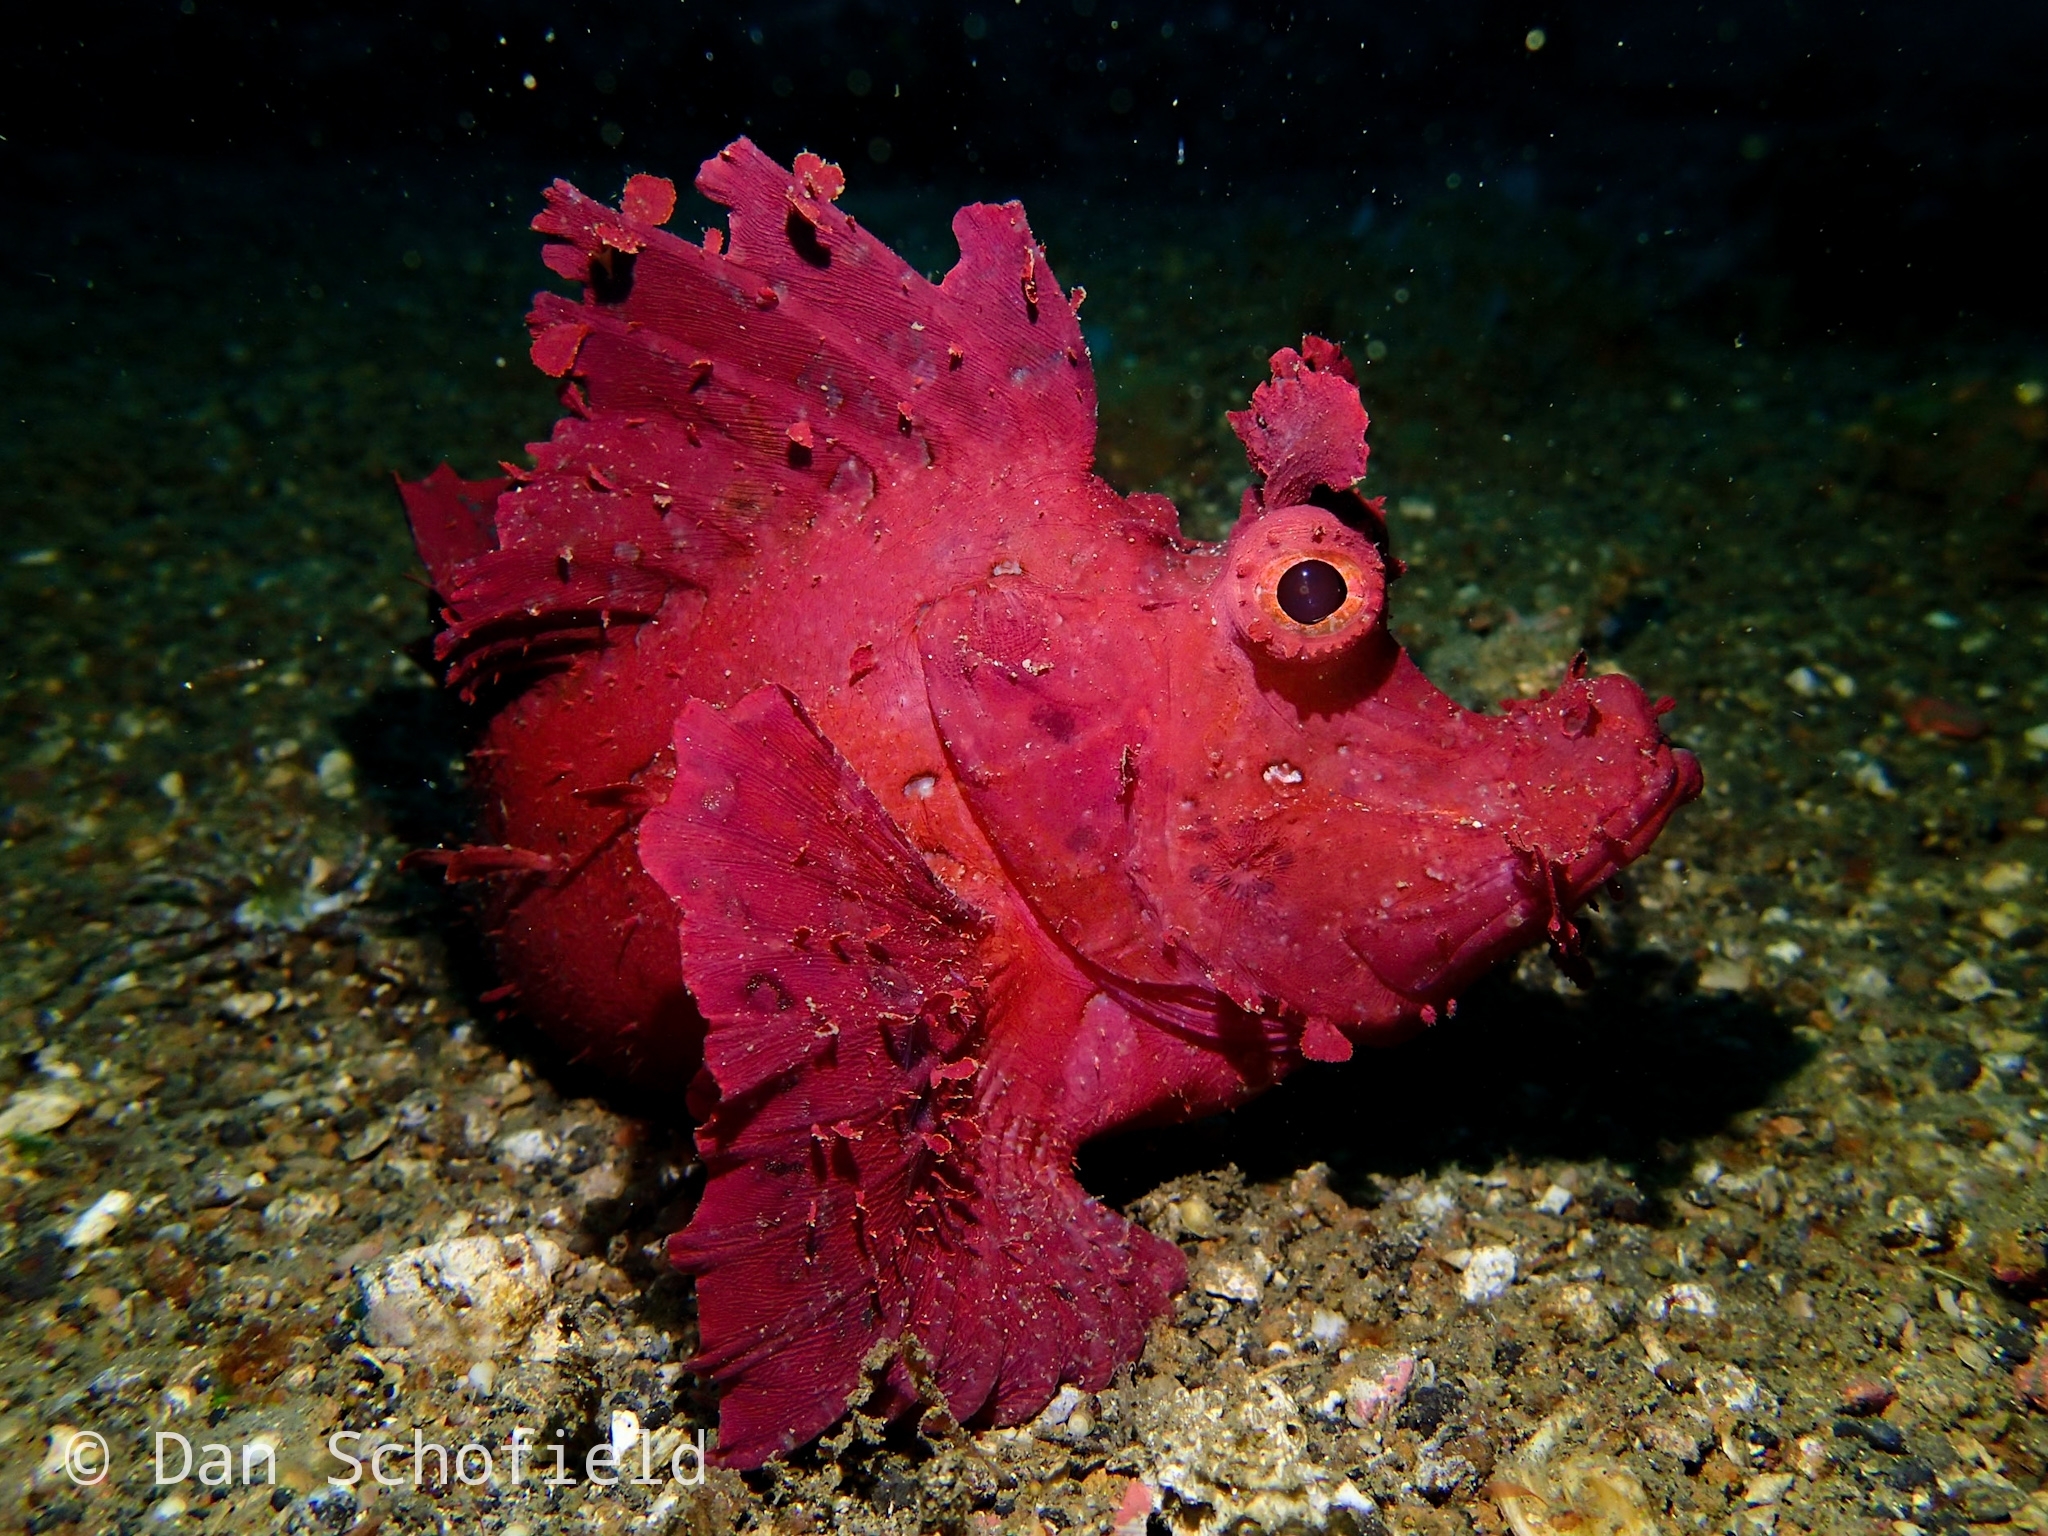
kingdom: Animalia
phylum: Chordata
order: Scorpaeniformes
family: Scorpaenidae
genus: Rhinopias
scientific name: Rhinopias eschmeyeri
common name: Eschmeyer's scorpionfish
